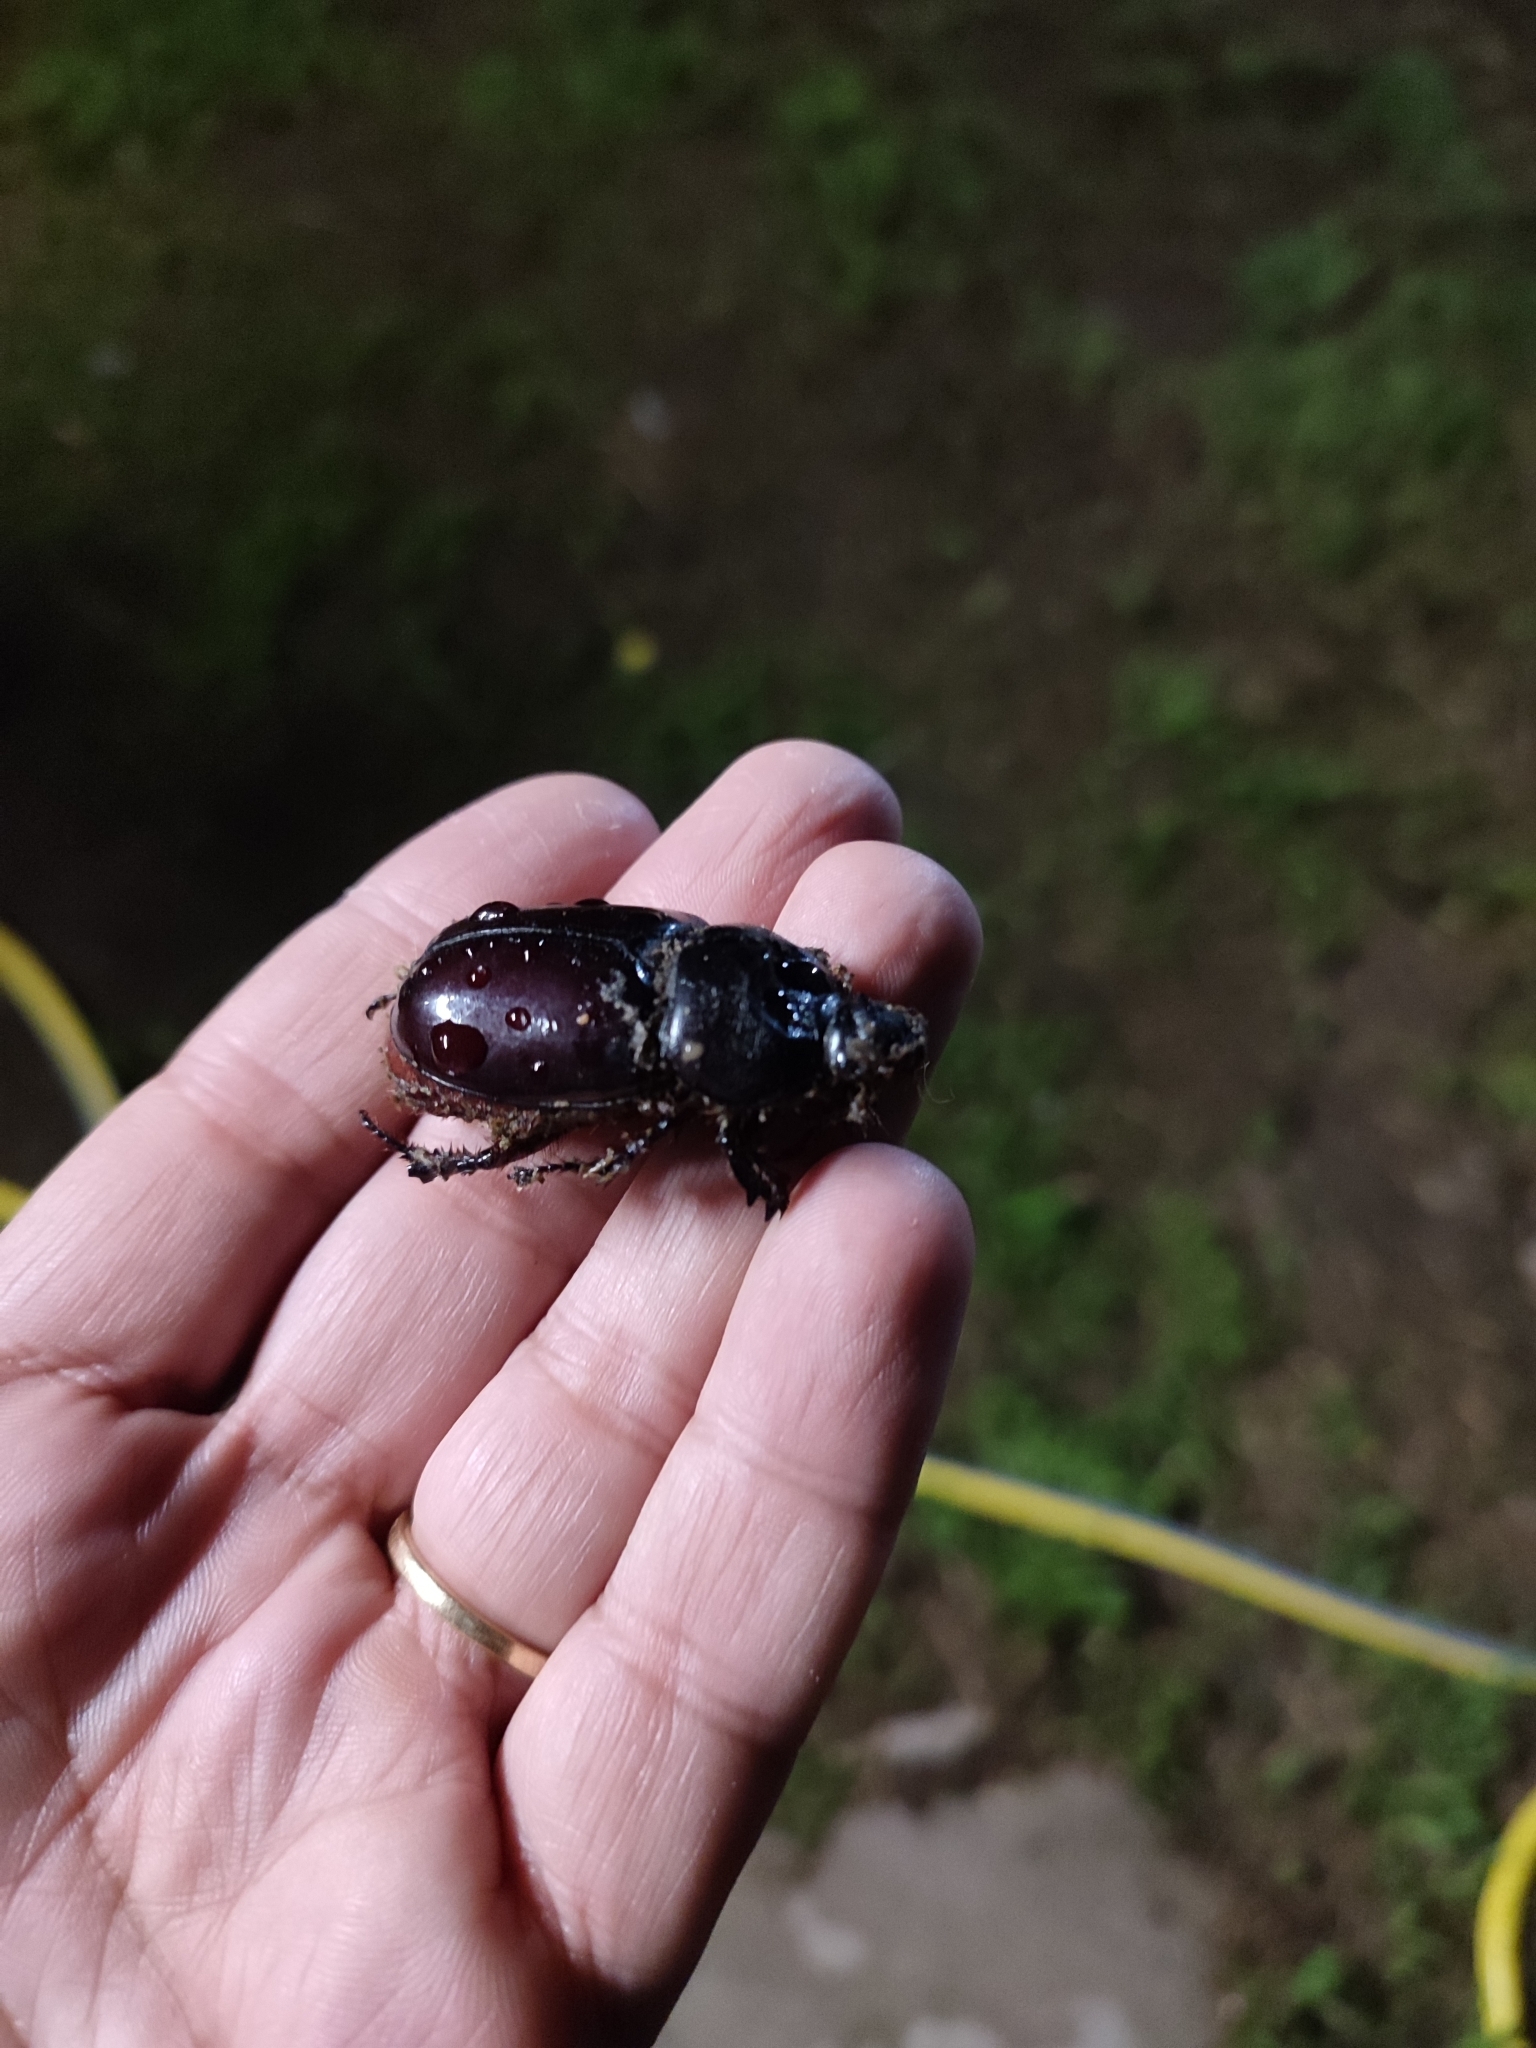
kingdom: Animalia
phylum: Arthropoda
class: Insecta
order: Coleoptera
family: Scarabaeidae
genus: Oryctes
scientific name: Oryctes nasicornis
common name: European rhinoceros beetle
